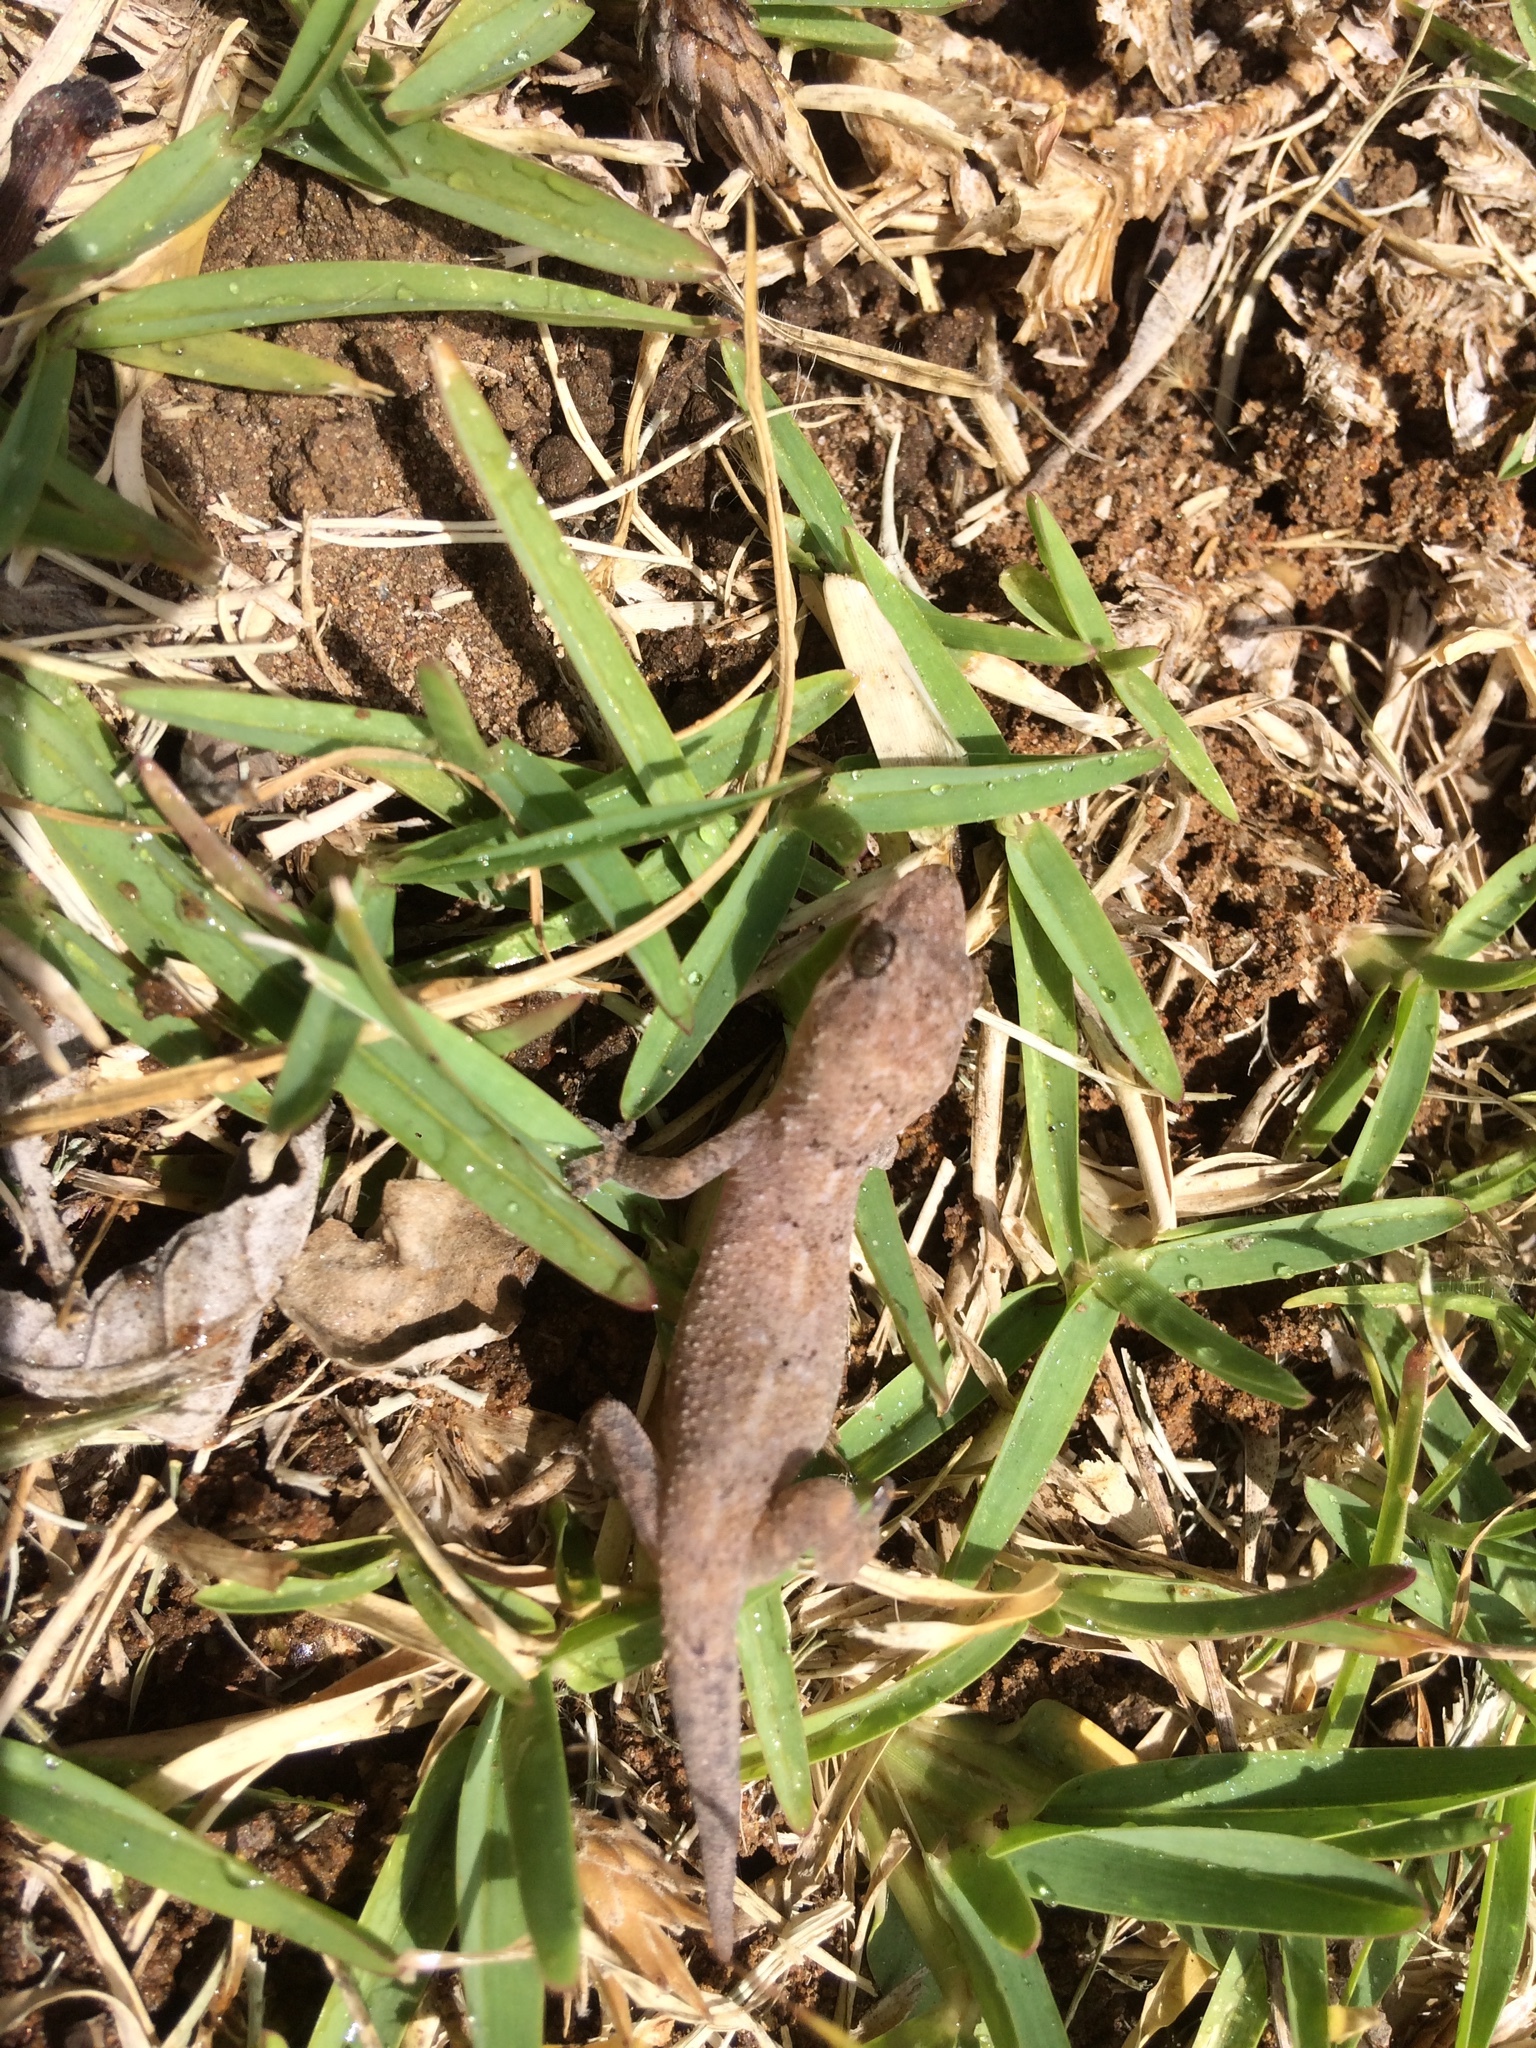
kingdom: Animalia
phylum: Chordata
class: Squamata
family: Gekkonidae
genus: Hemidactylus
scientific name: Hemidactylus mabouia
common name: House gecko
